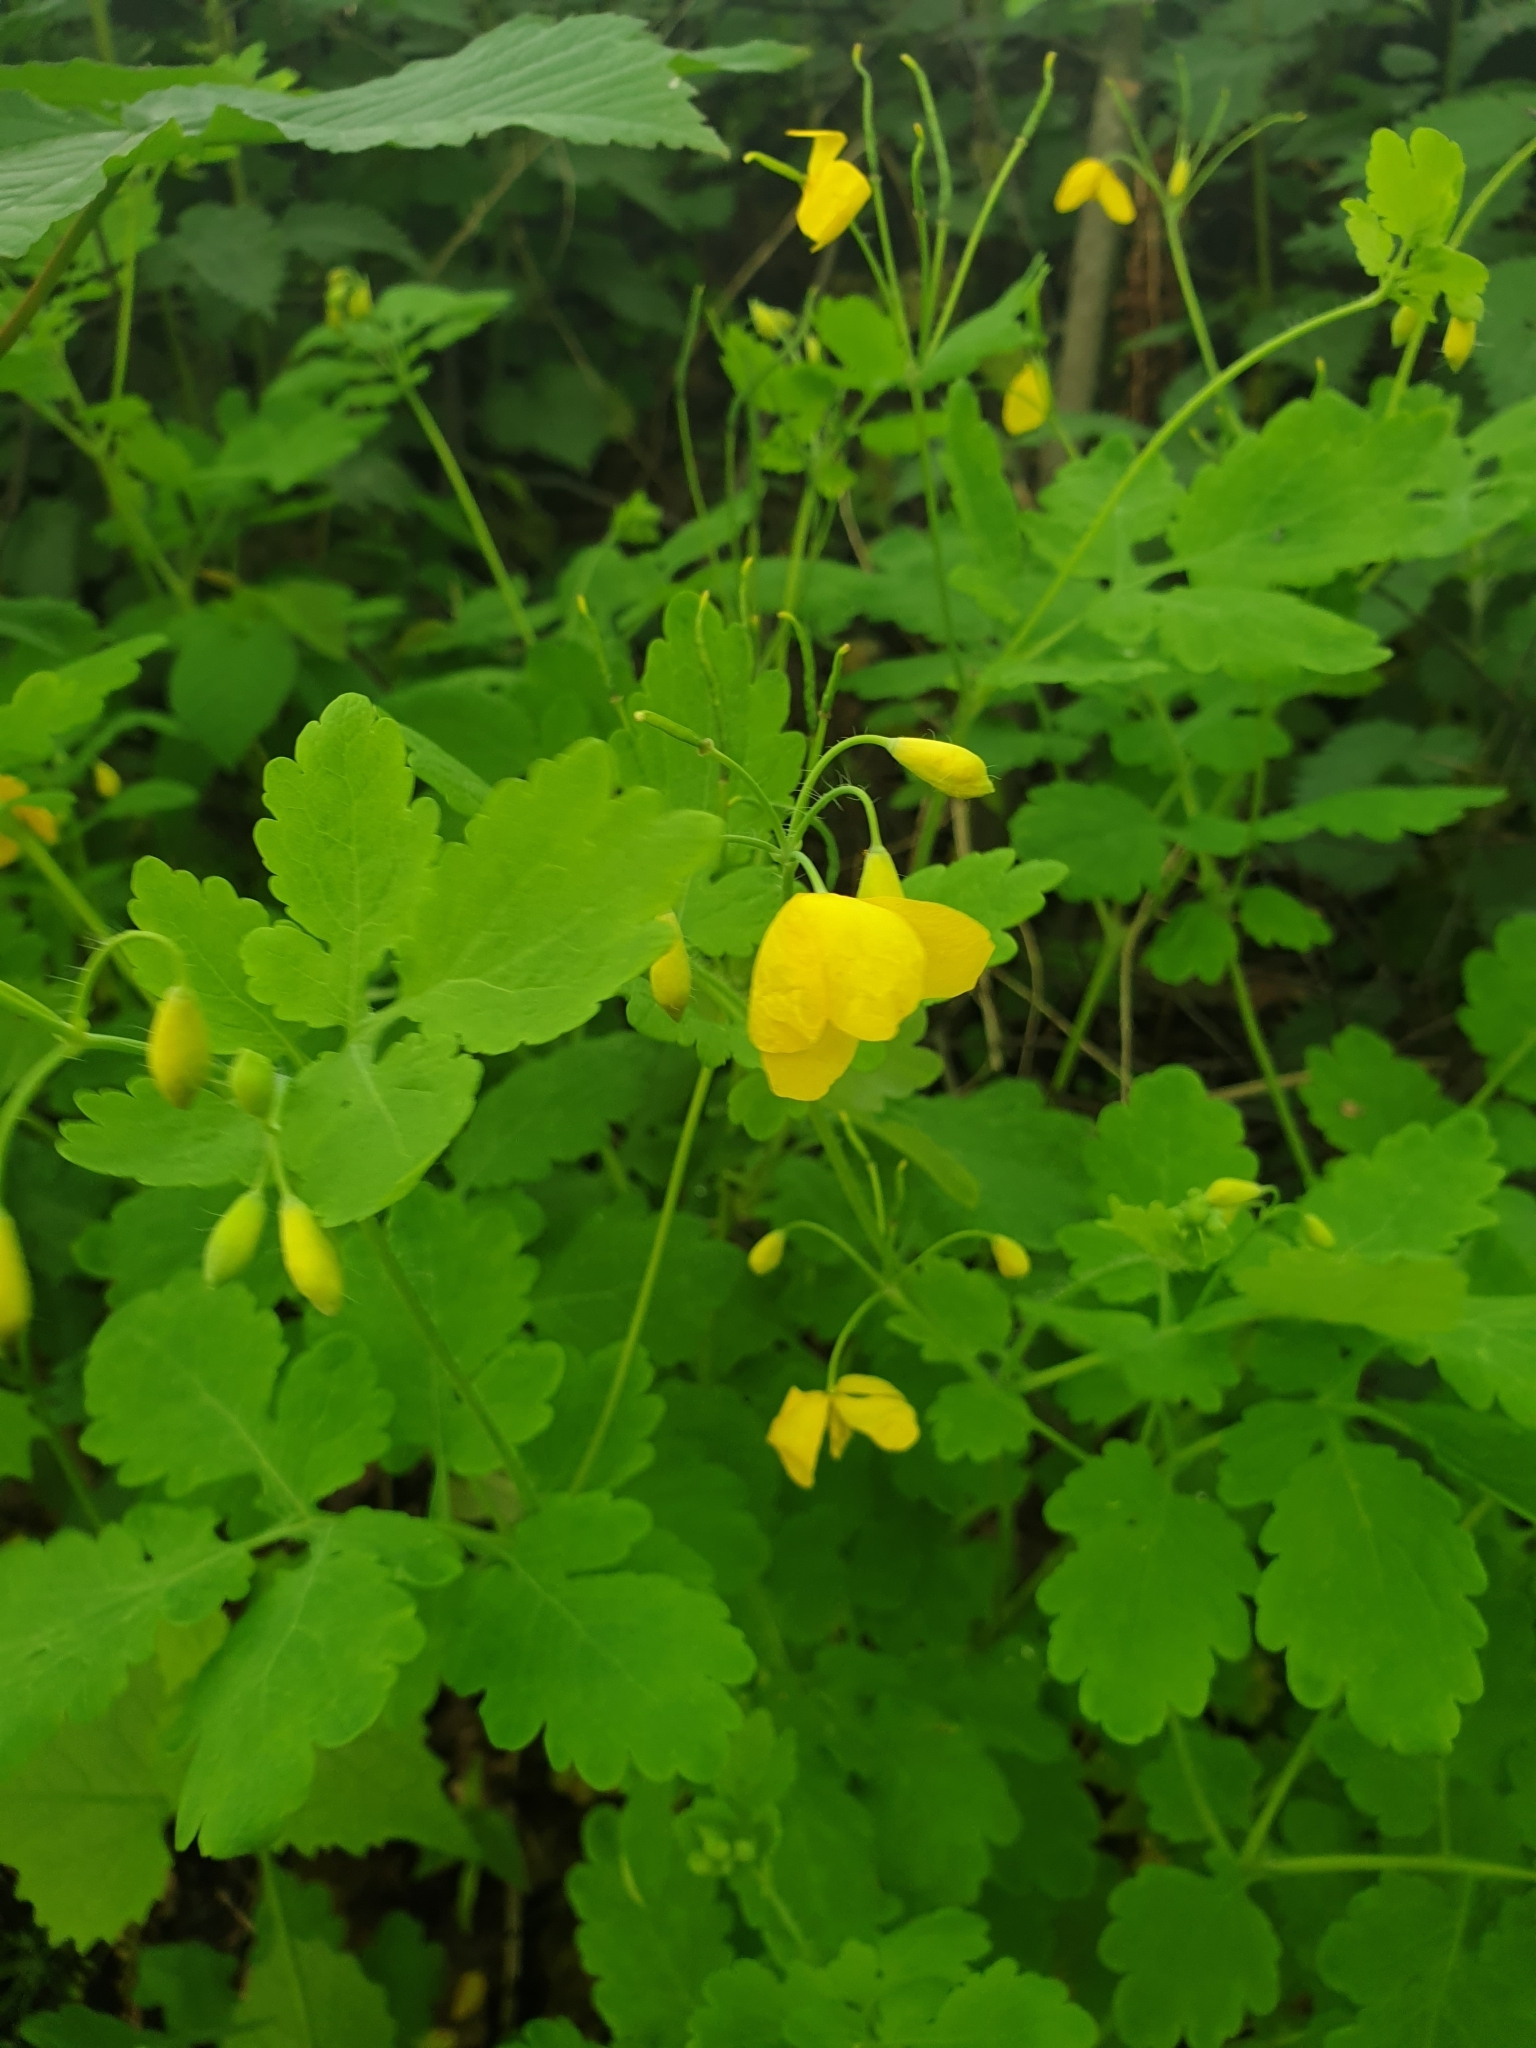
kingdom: Plantae
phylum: Tracheophyta
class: Magnoliopsida
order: Ranunculales
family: Papaveraceae
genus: Chelidonium
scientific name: Chelidonium majus
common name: Greater celandine
